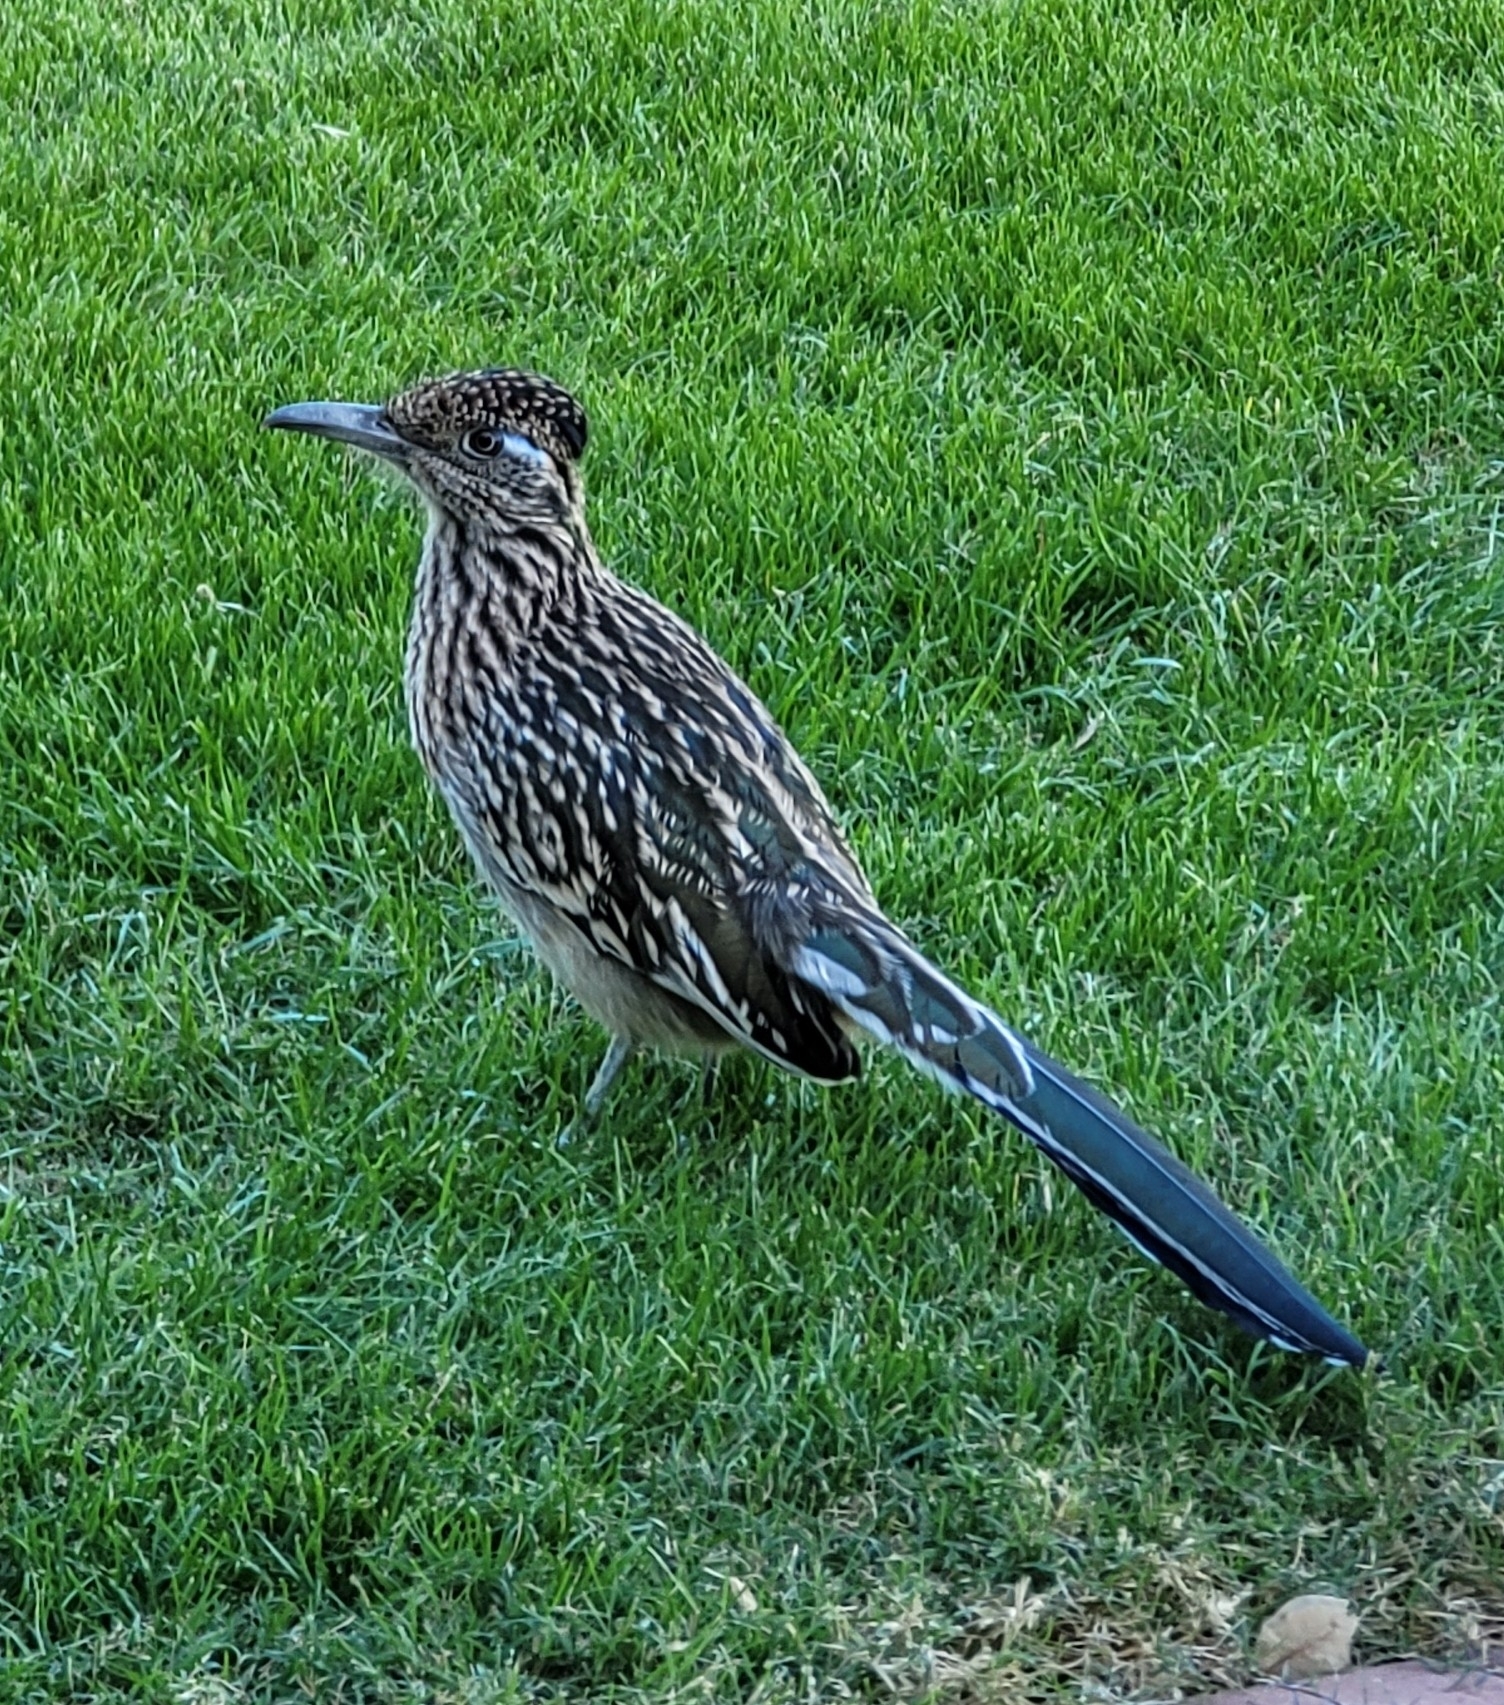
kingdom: Animalia
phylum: Chordata
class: Aves
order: Cuculiformes
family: Cuculidae
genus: Geococcyx
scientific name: Geococcyx californianus
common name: Greater roadrunner
